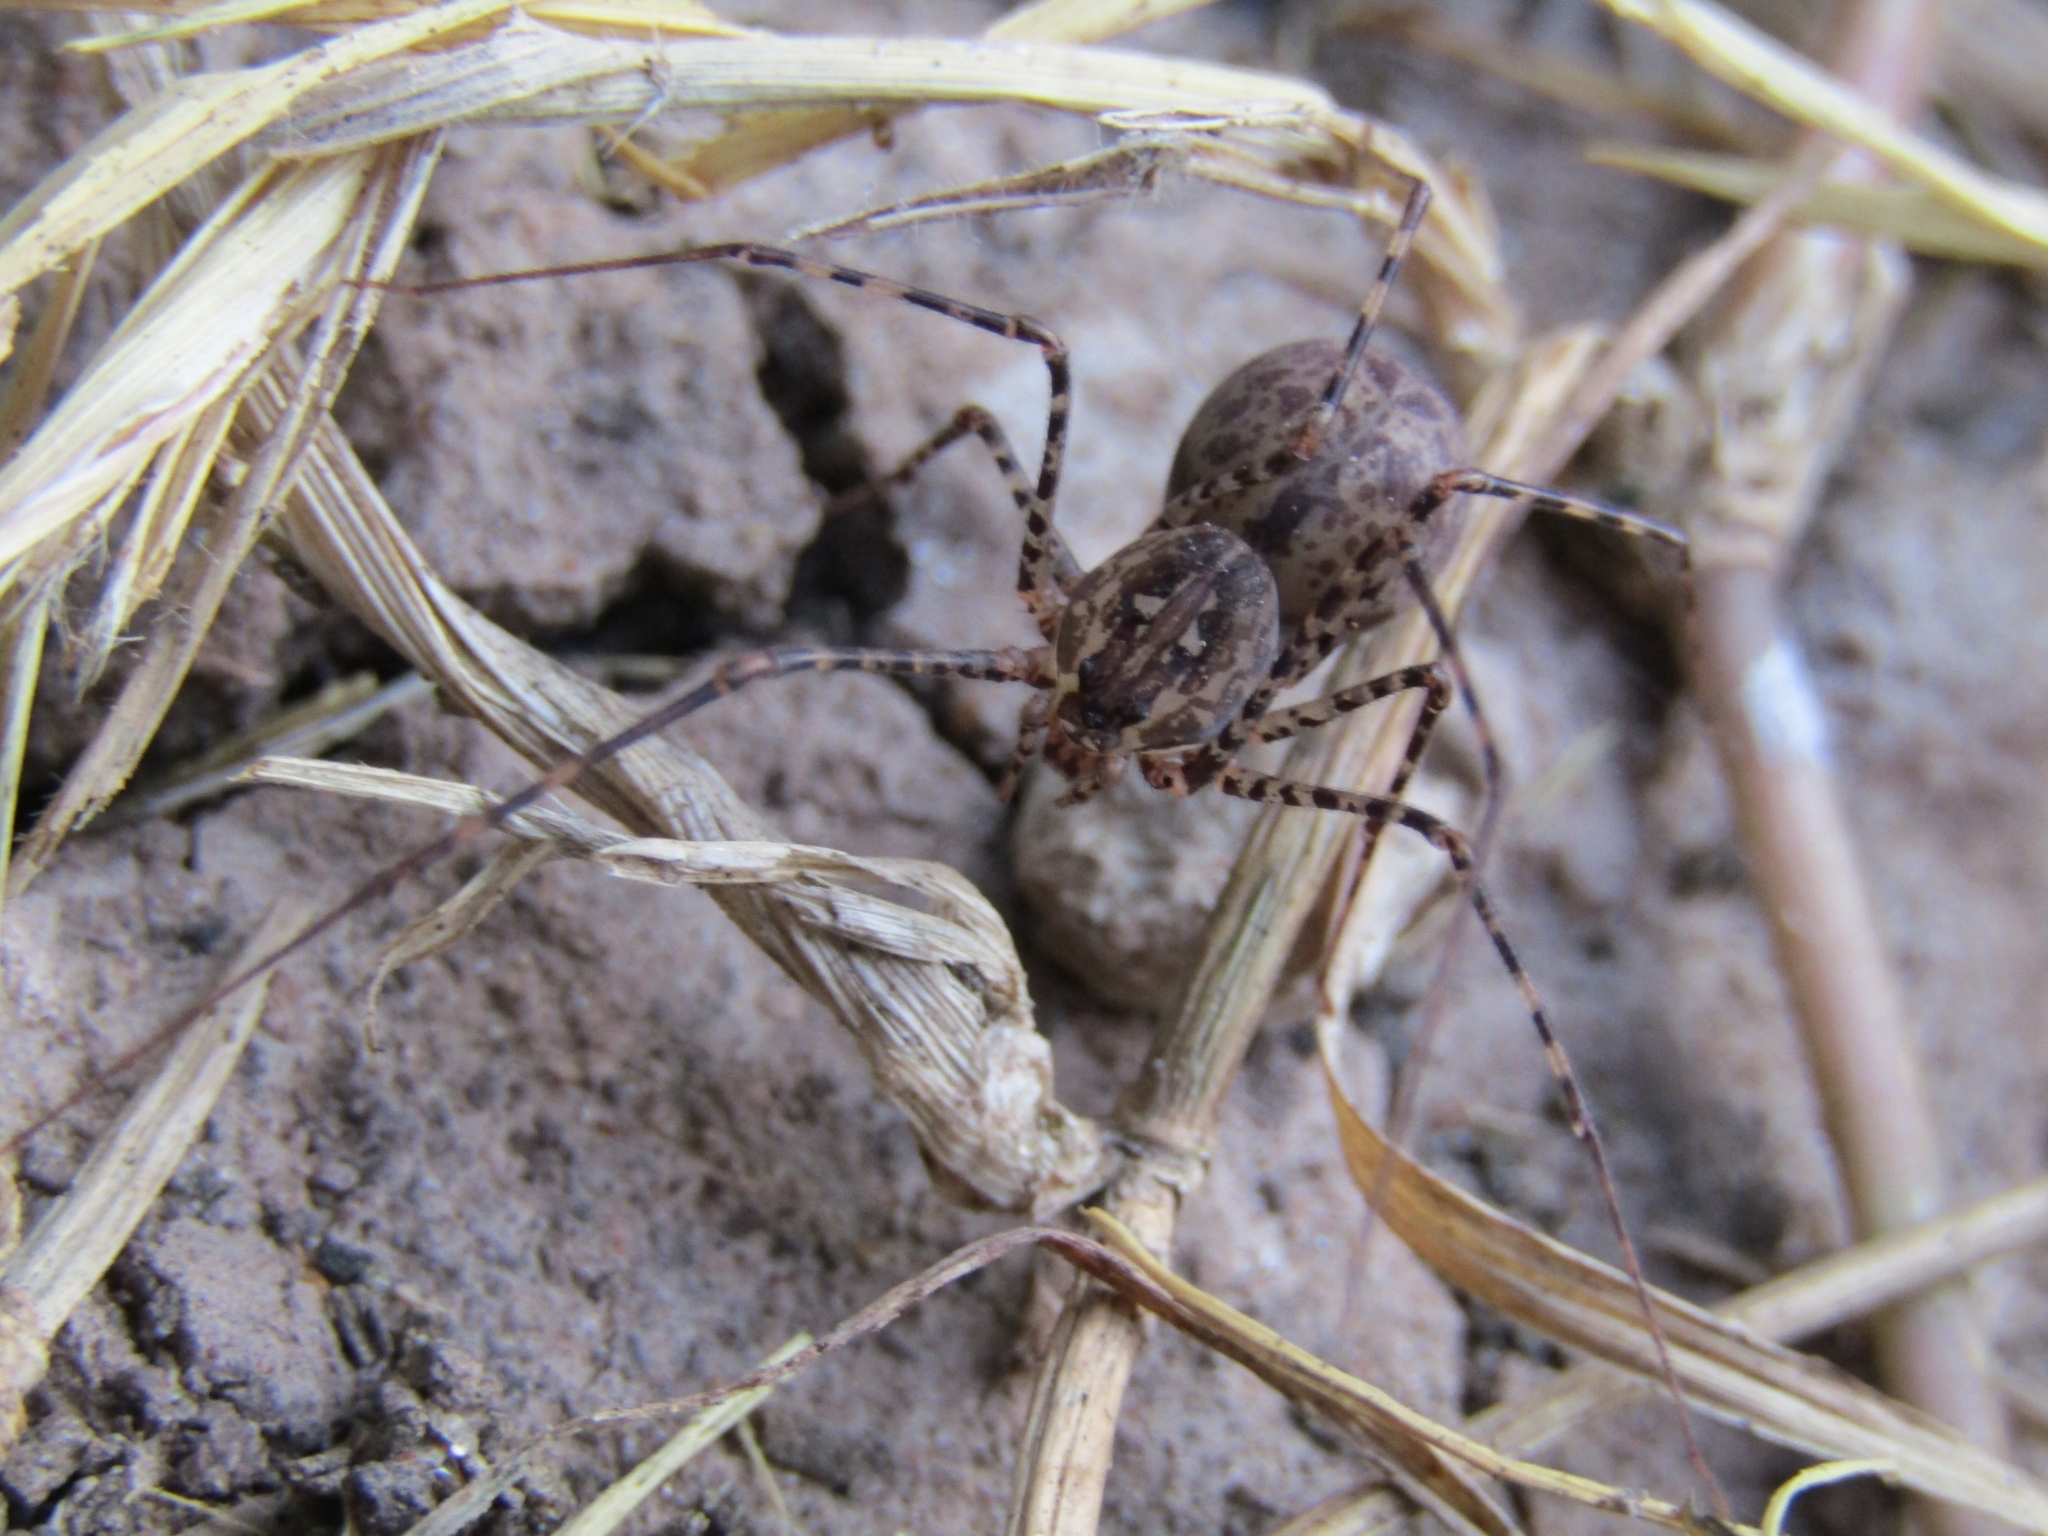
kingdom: Animalia
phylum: Arthropoda
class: Arachnida
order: Araneae
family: Scytodidae
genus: Scytodes
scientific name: Scytodes globula
